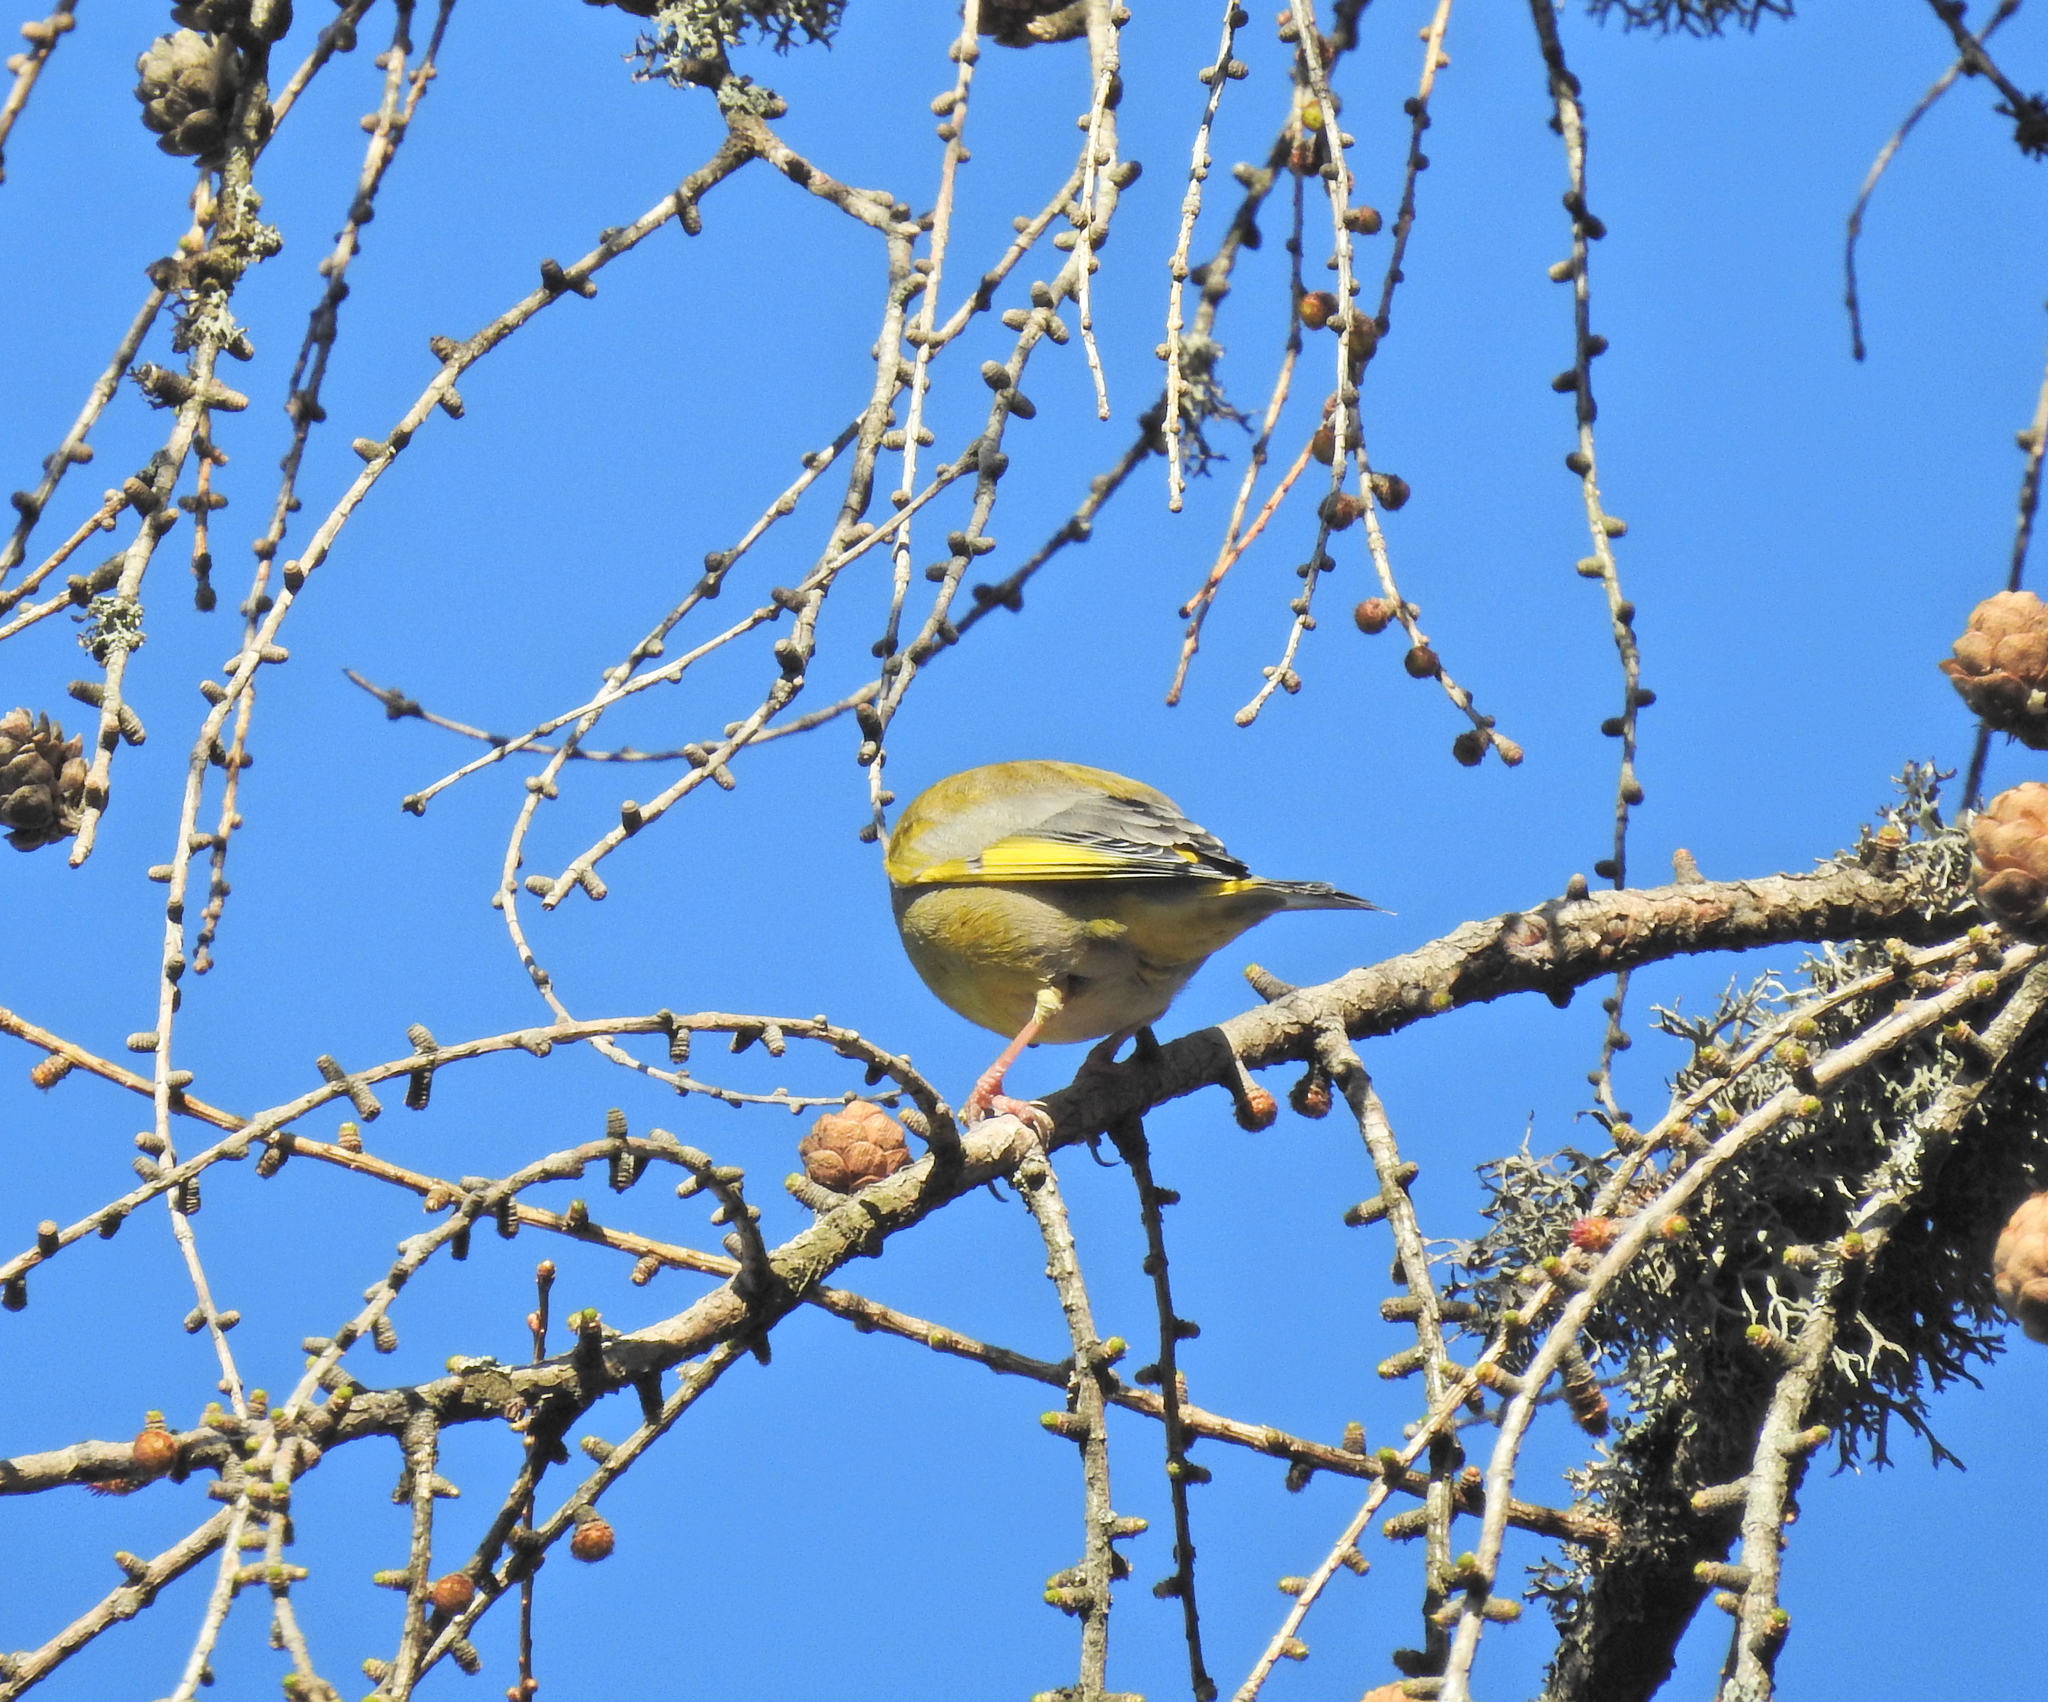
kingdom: Plantae
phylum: Tracheophyta
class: Liliopsida
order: Poales
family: Poaceae
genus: Chloris
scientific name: Chloris chloris
